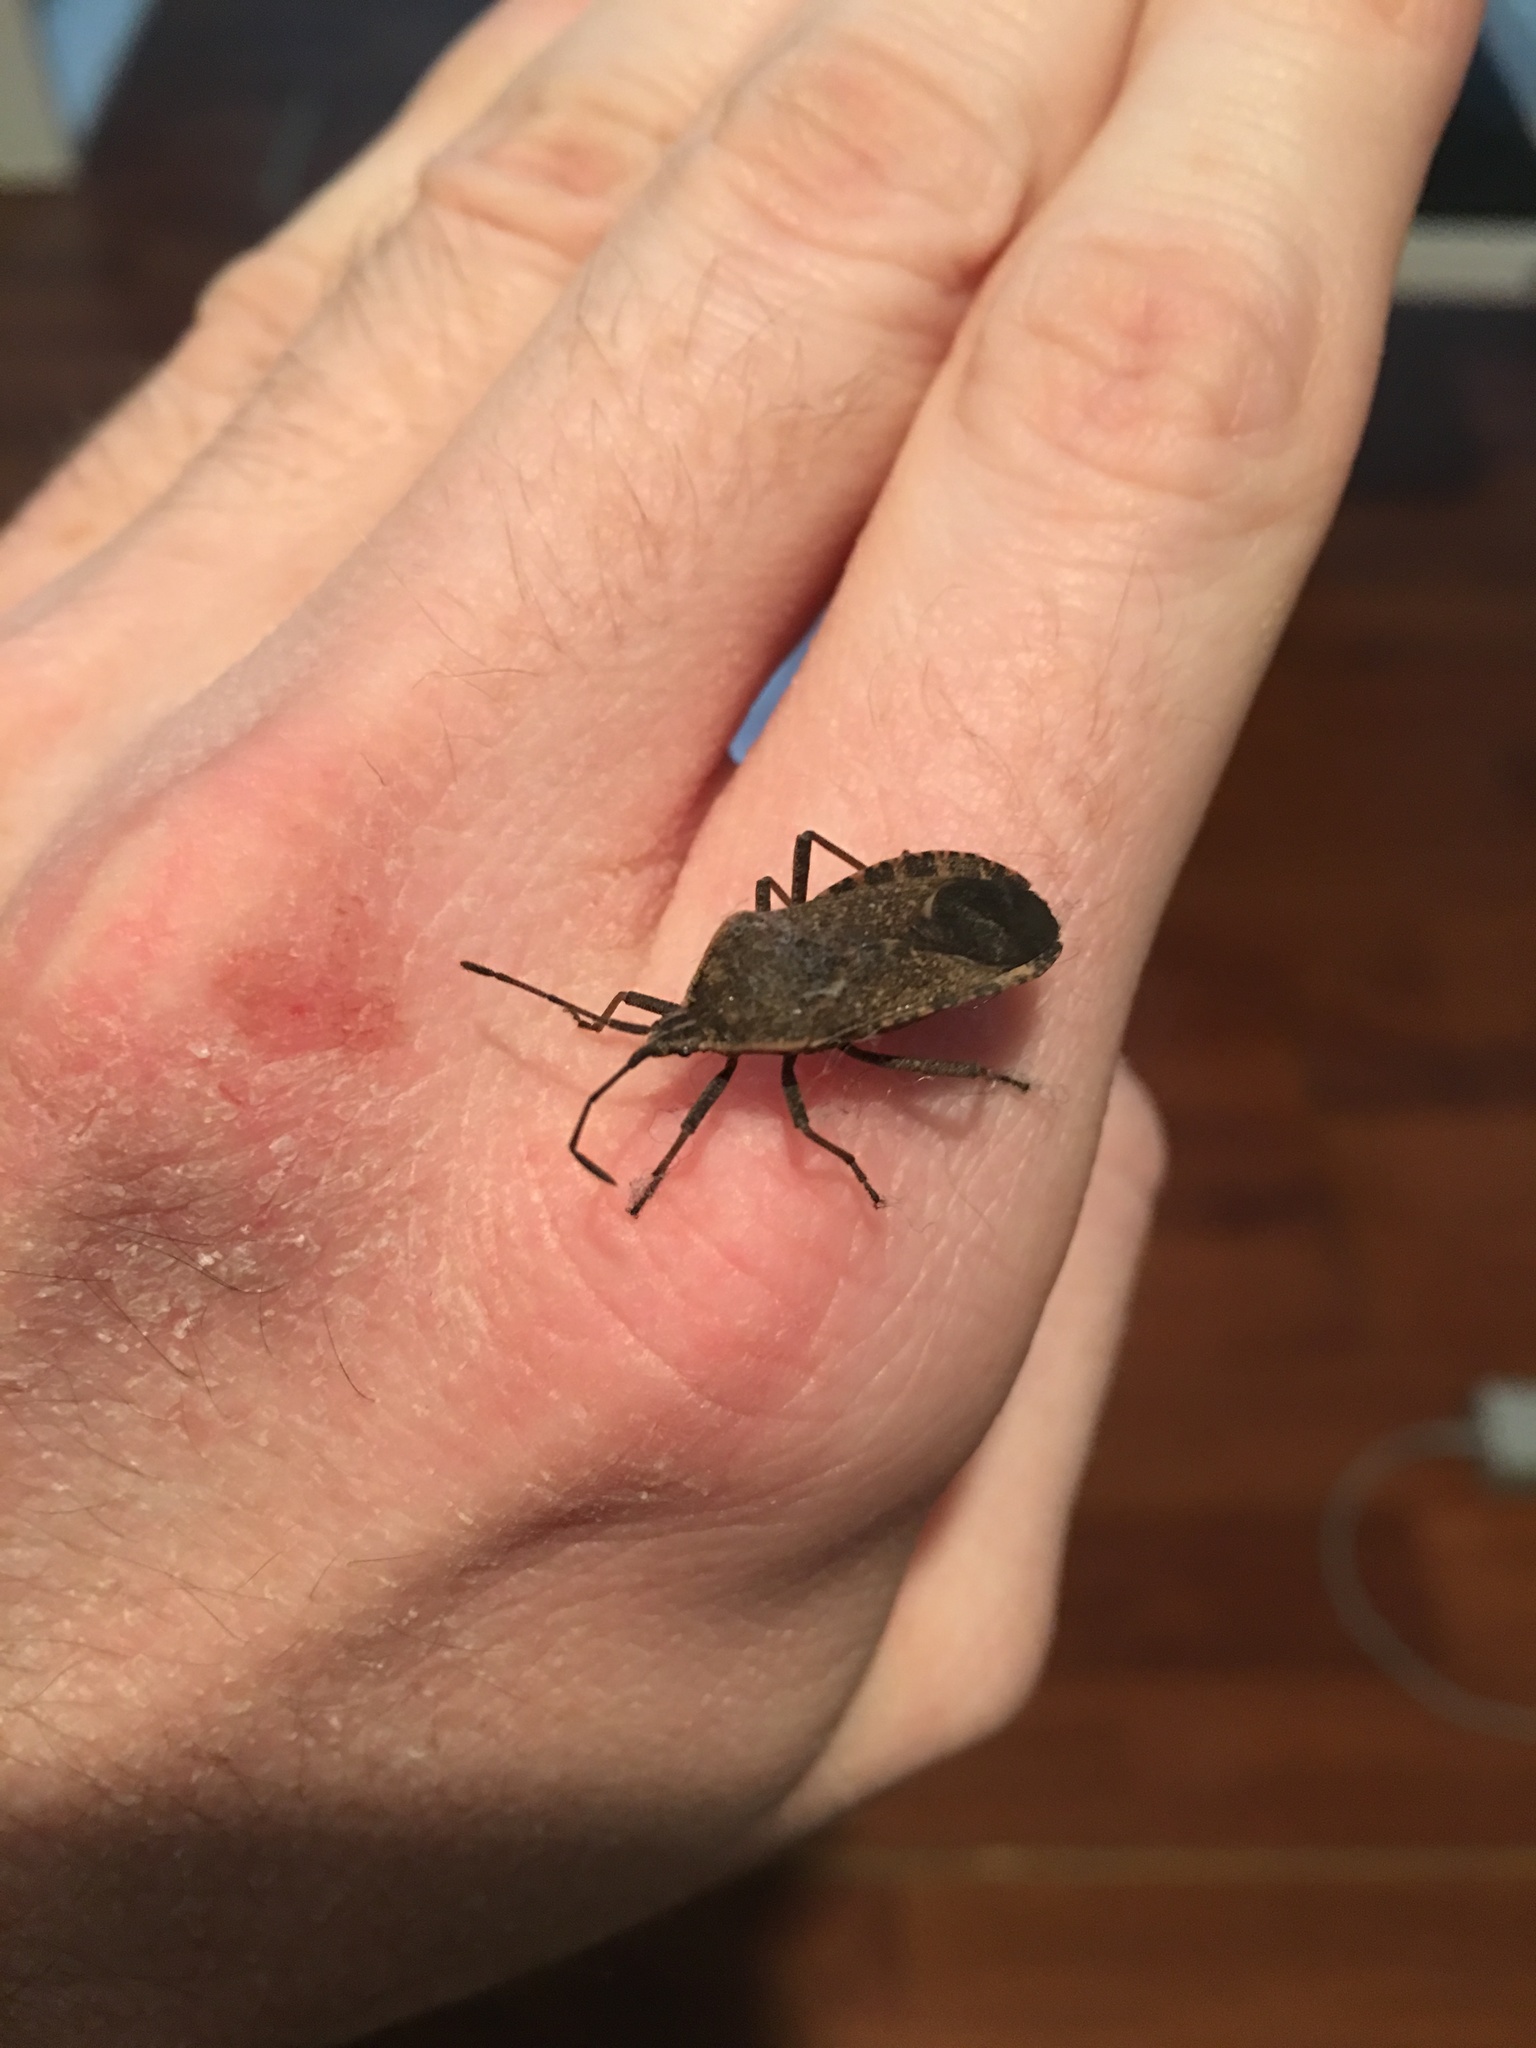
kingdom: Animalia
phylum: Arthropoda
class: Insecta
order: Hemiptera
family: Coreidae
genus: Anasa
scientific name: Anasa tristis
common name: Squash bug
